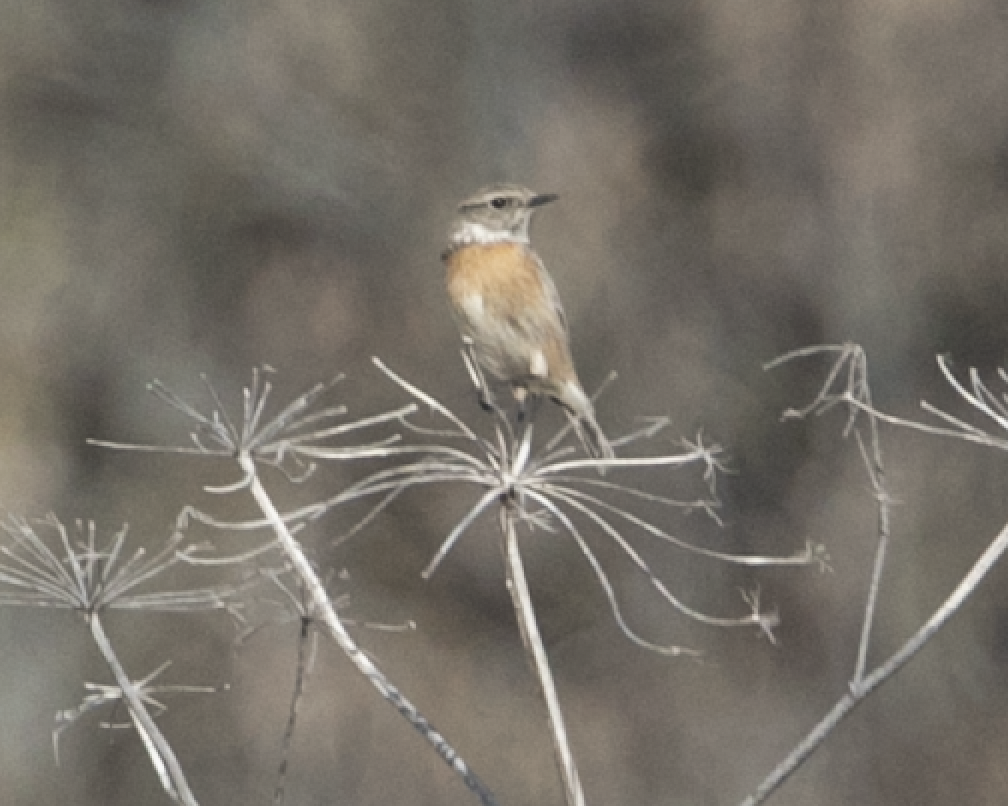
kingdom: Animalia
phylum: Chordata
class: Aves
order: Passeriformes
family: Muscicapidae
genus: Saxicola
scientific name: Saxicola rubicola
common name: European stonechat
